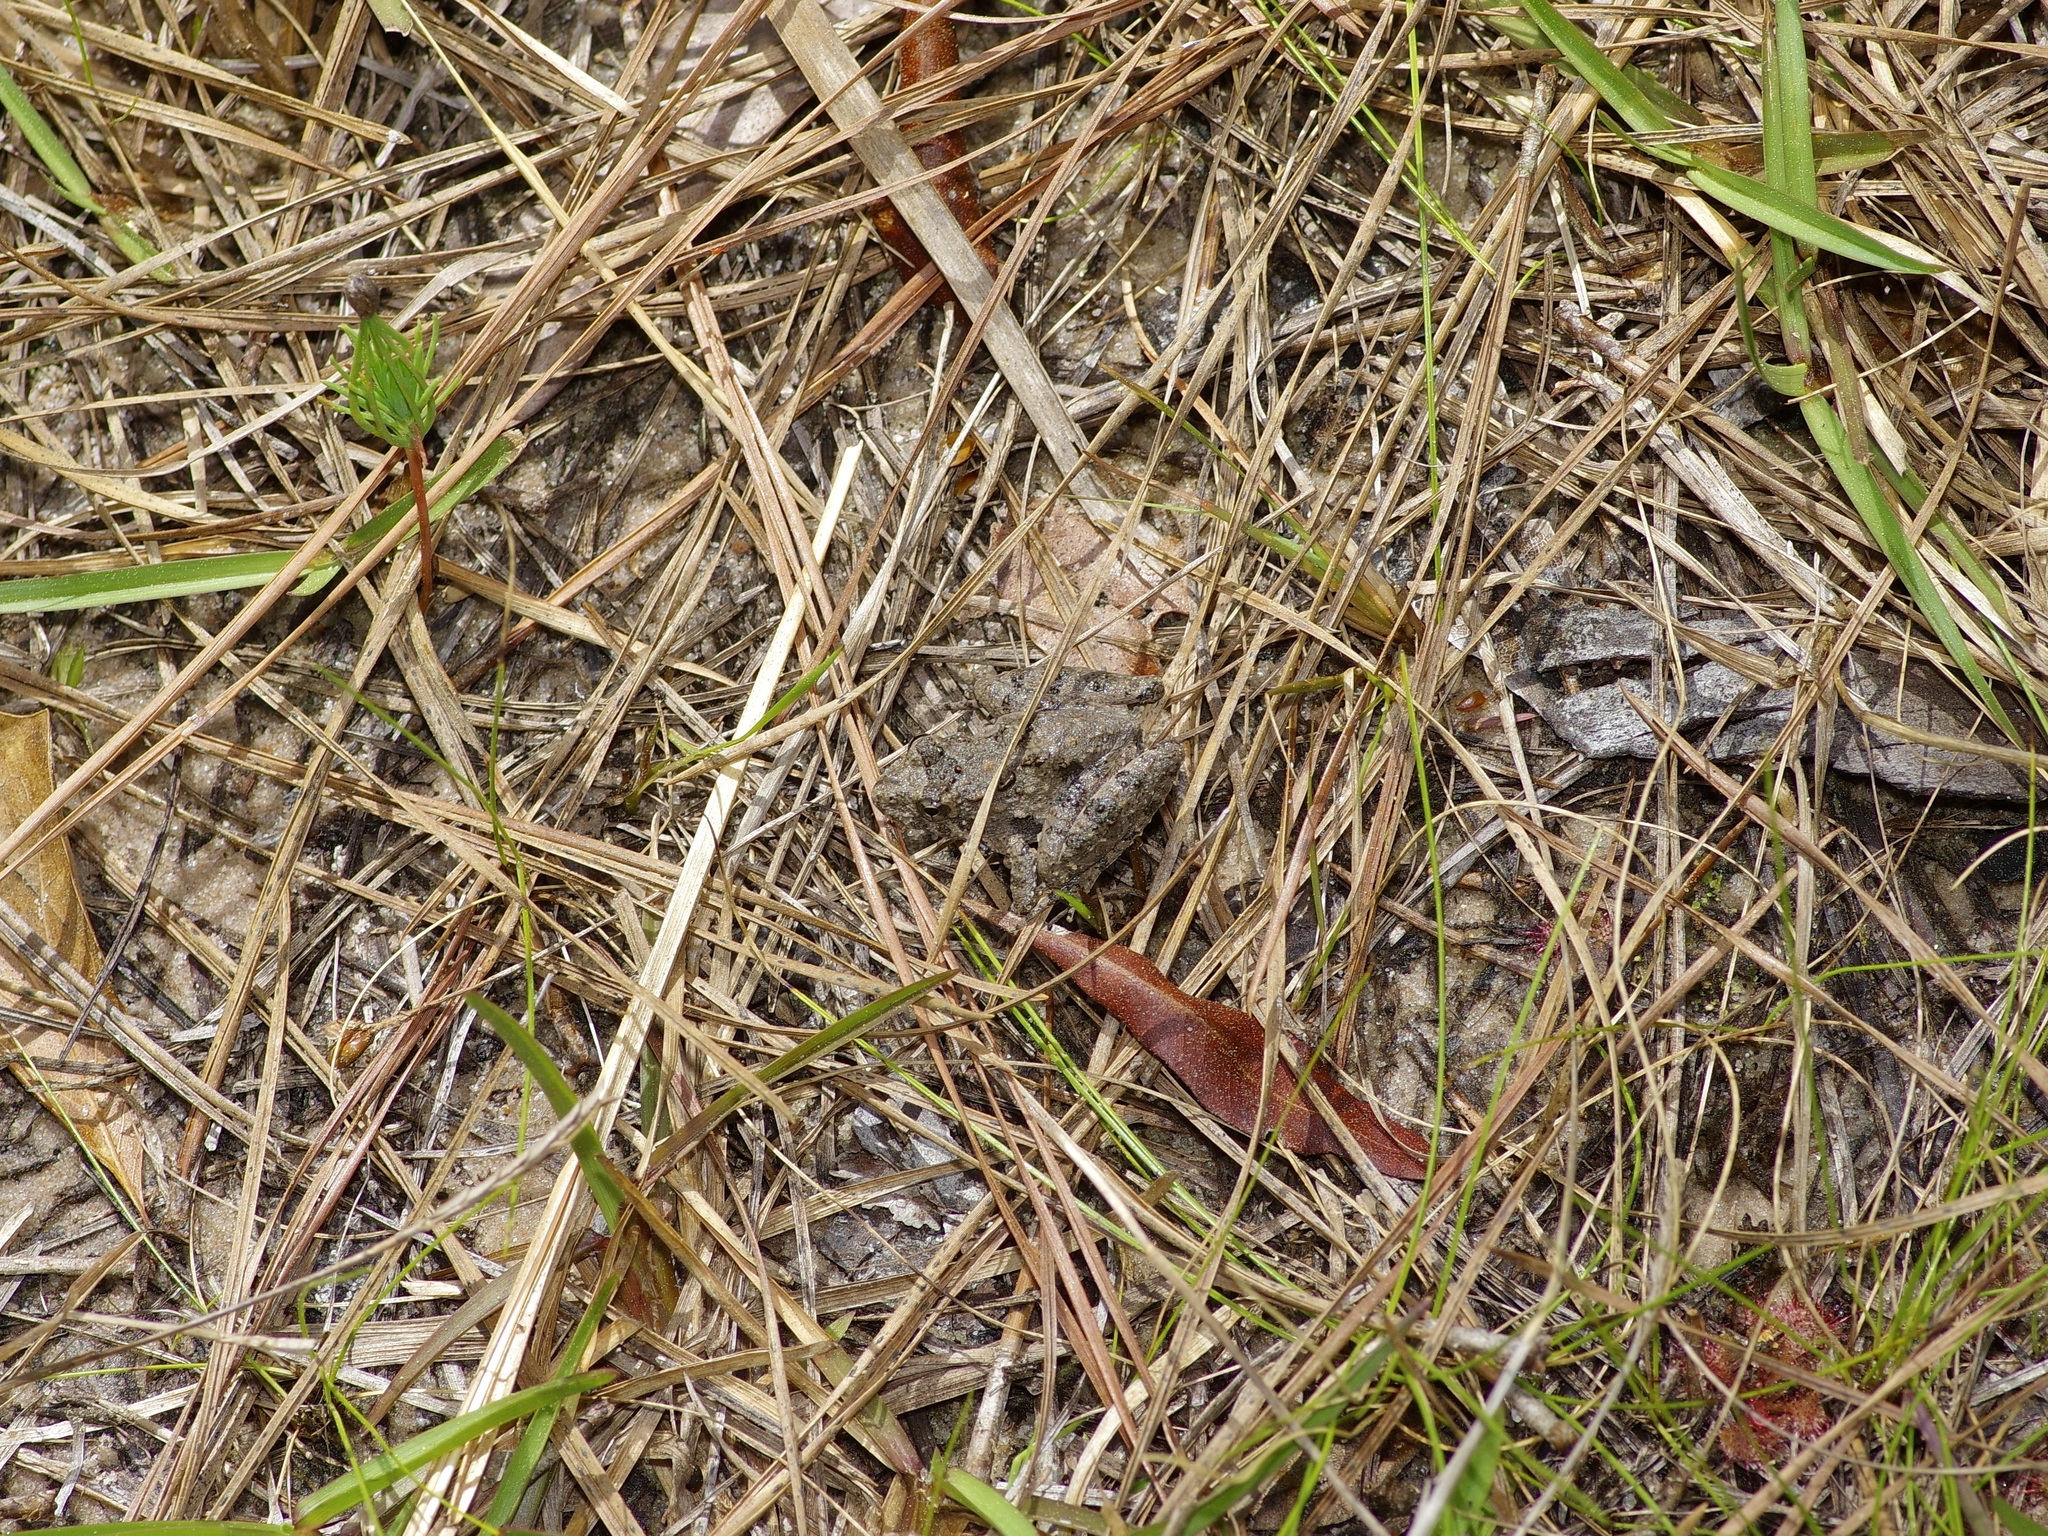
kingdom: Animalia
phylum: Chordata
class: Amphibia
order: Anura
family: Hylidae
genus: Acris
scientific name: Acris blanchardi
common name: Blanchard's cricket frog
